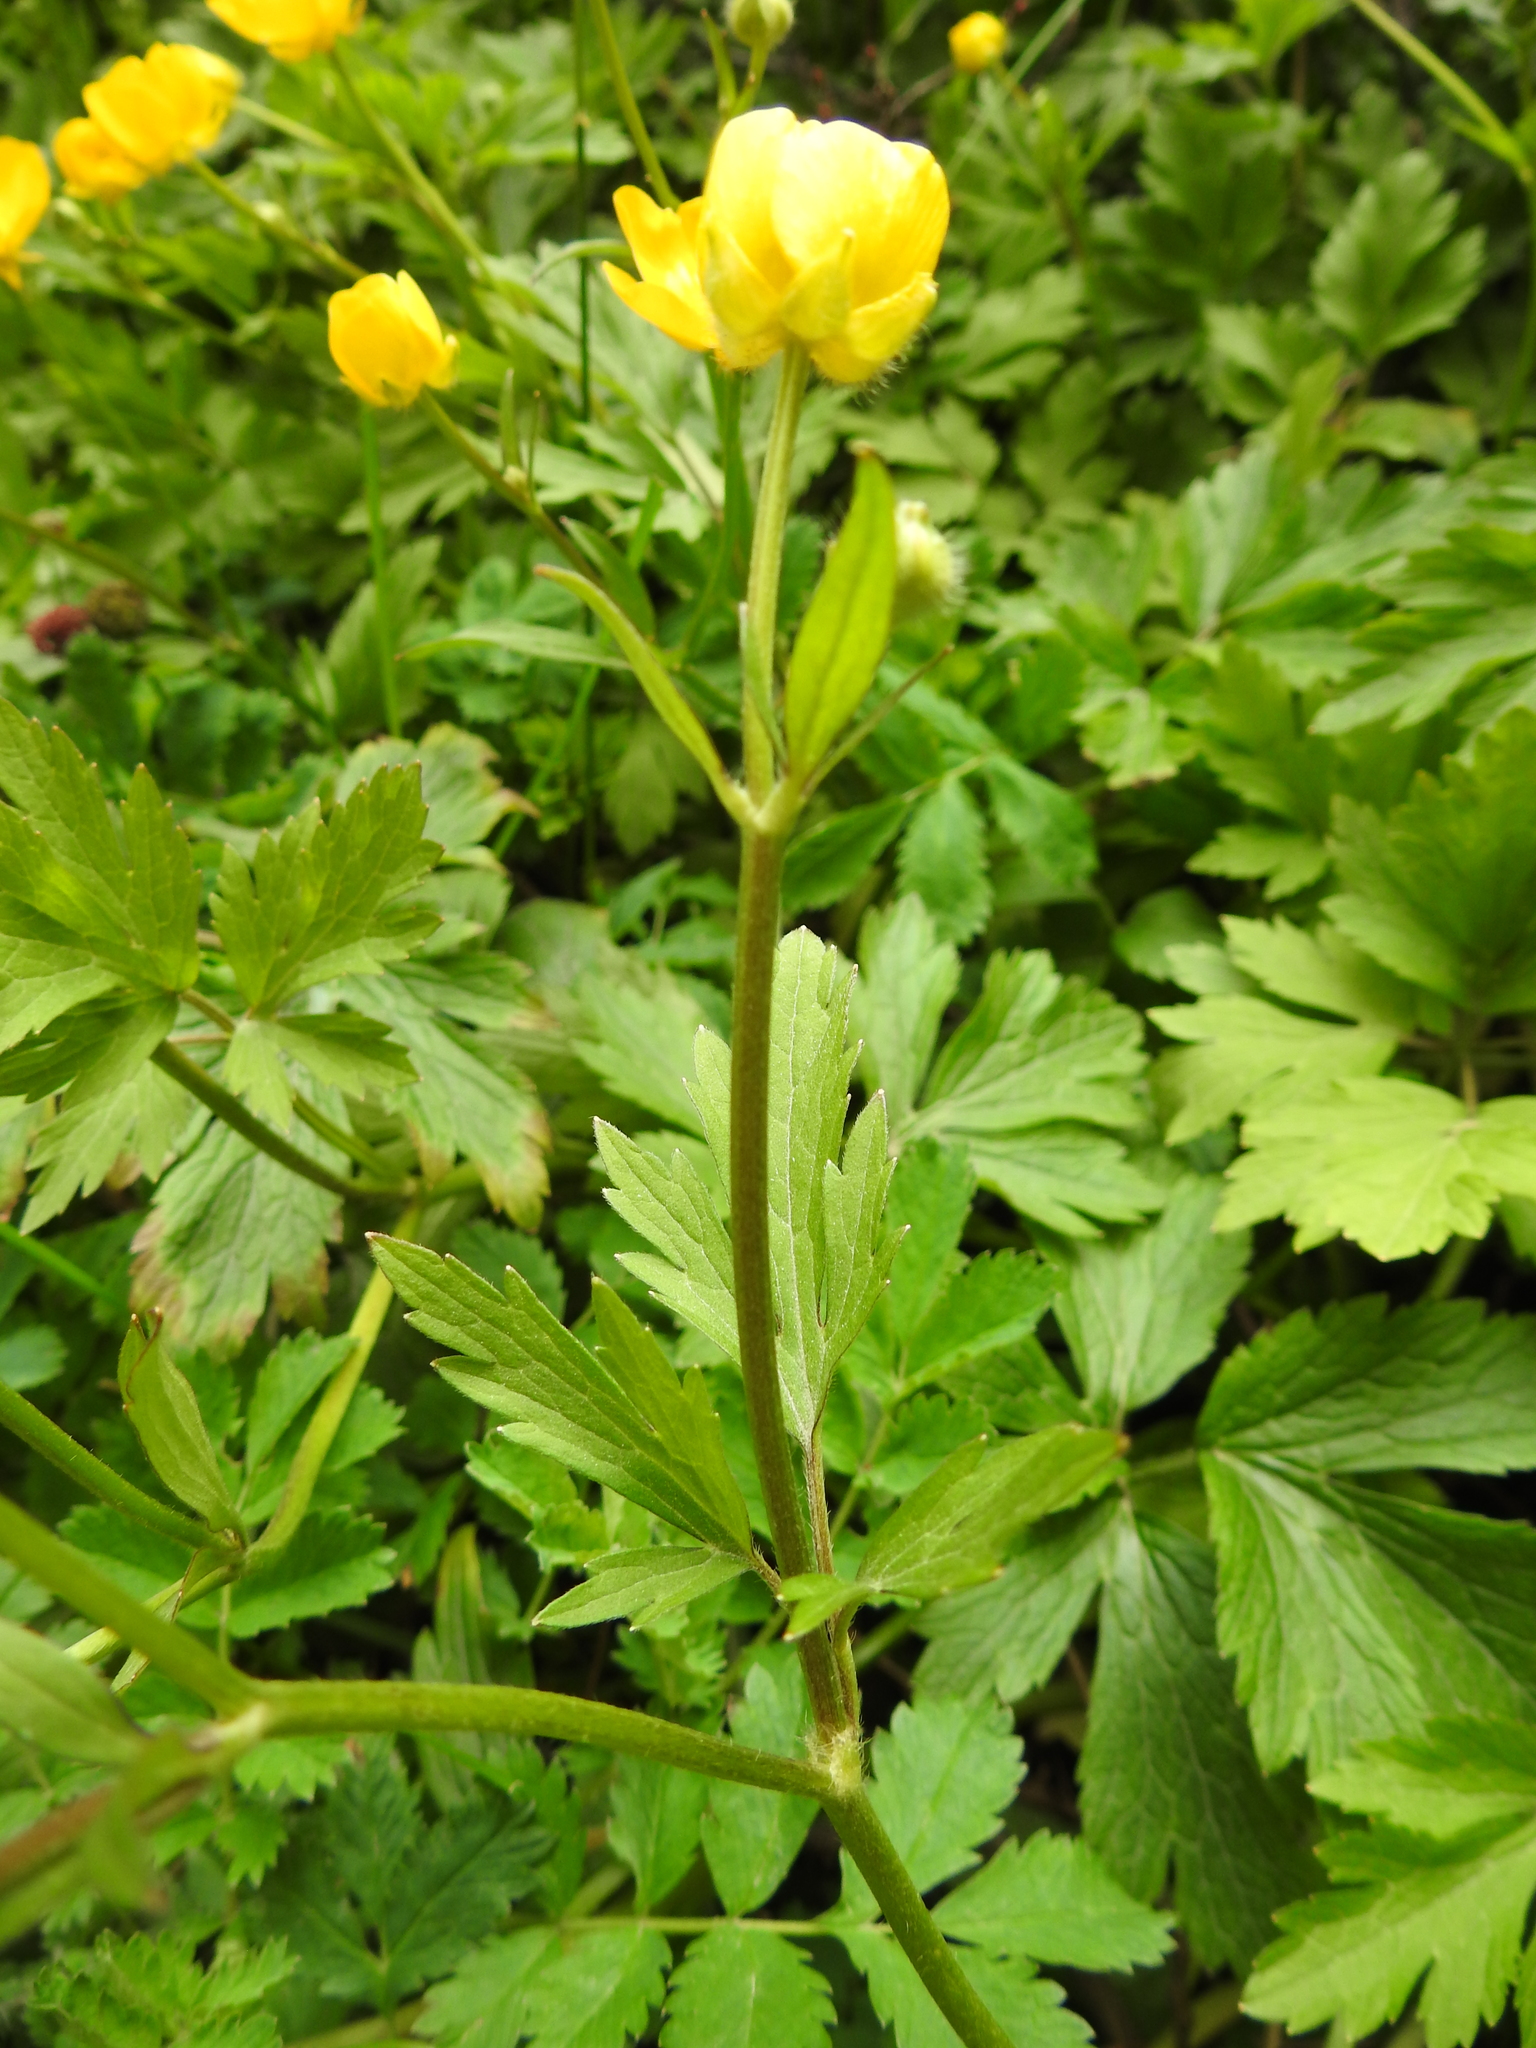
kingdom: Plantae
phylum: Tracheophyta
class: Magnoliopsida
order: Ranunculales
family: Ranunculaceae
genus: Ranunculus
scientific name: Ranunculus repens
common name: Creeping buttercup
